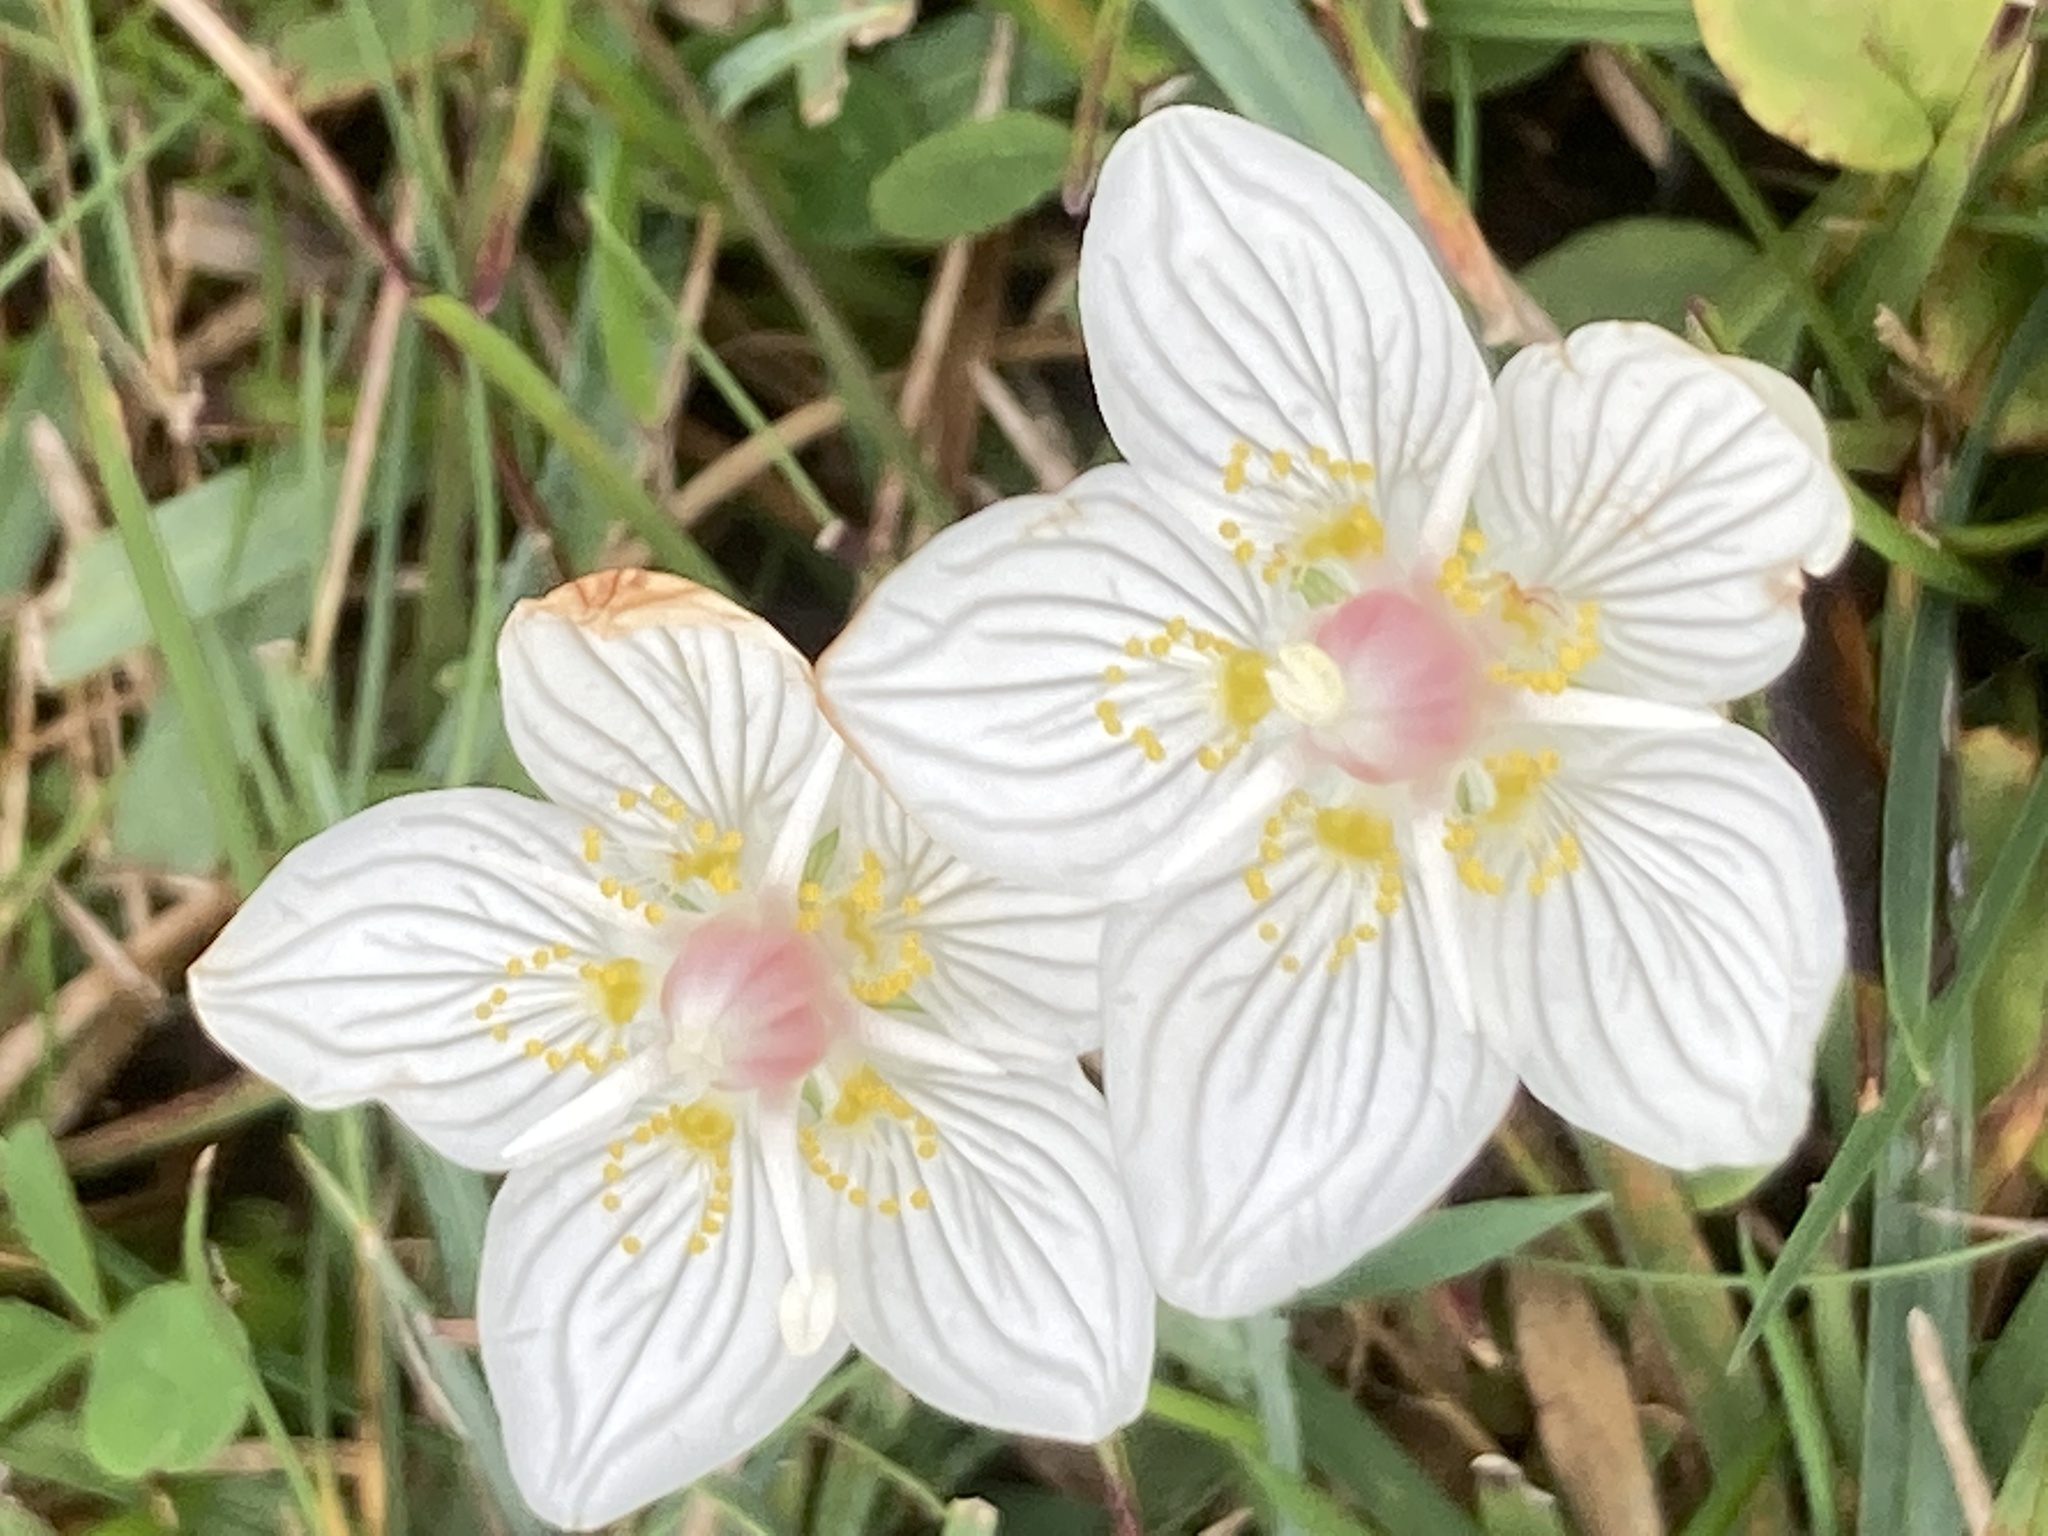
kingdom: Plantae
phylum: Tracheophyta
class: Magnoliopsida
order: Celastrales
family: Parnassiaceae
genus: Parnassia
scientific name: Parnassia palustris
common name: Grass-of-parnassus
